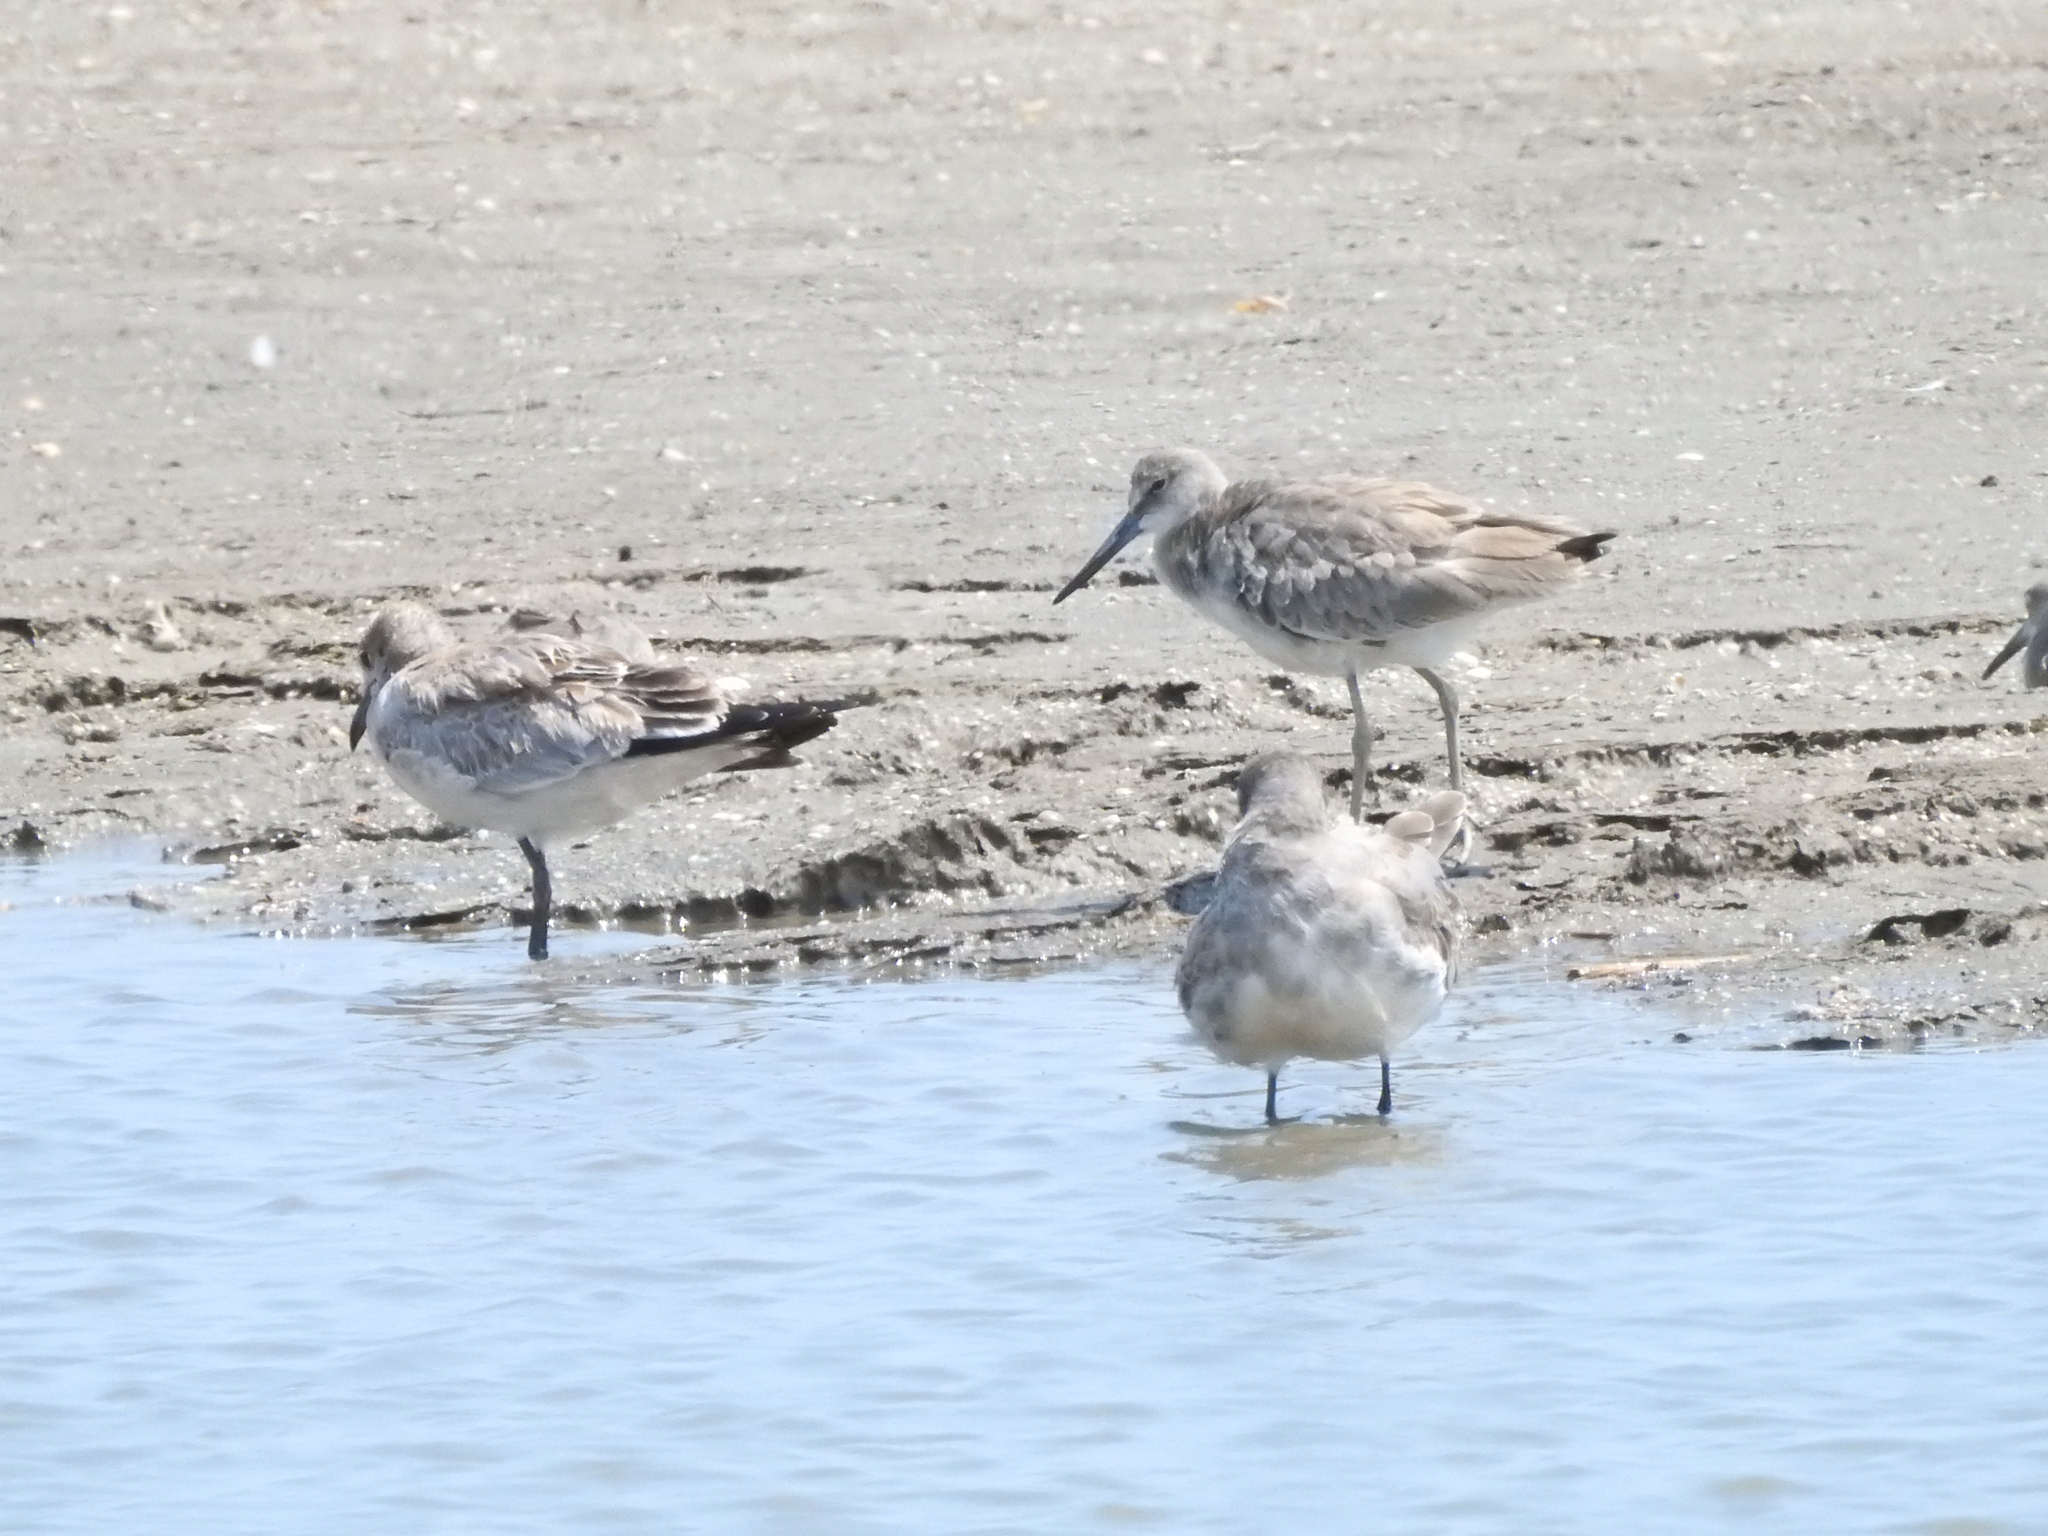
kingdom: Animalia
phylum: Chordata
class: Aves
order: Charadriiformes
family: Scolopacidae
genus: Tringa
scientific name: Tringa semipalmata
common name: Willet
